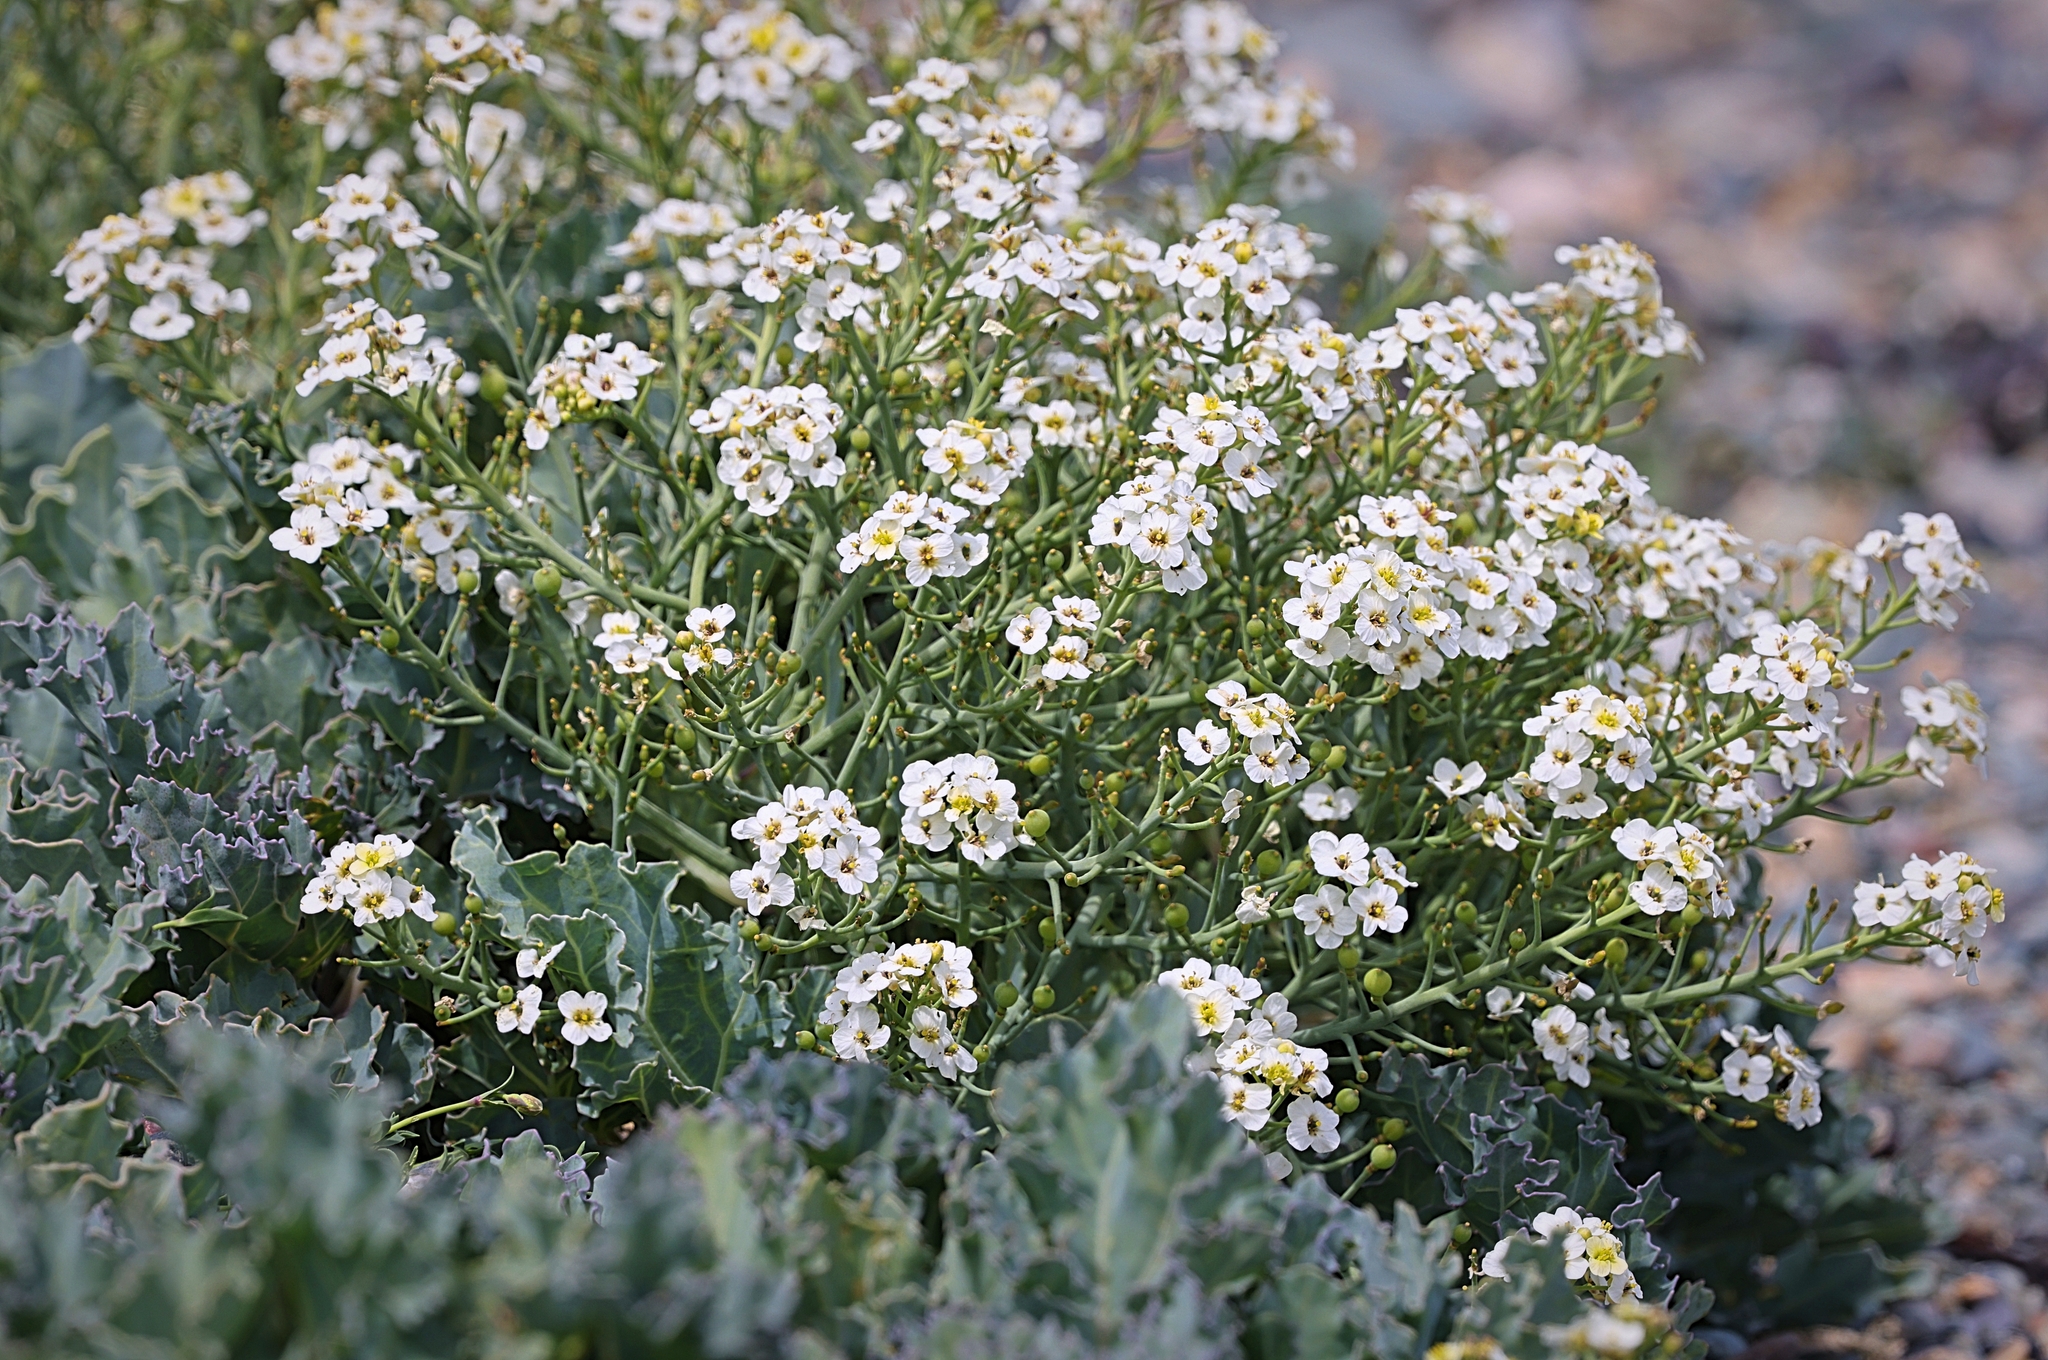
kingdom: Plantae
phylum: Tracheophyta
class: Magnoliopsida
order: Brassicales
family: Brassicaceae
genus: Crambe
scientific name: Crambe maritima
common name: Sea-kale
